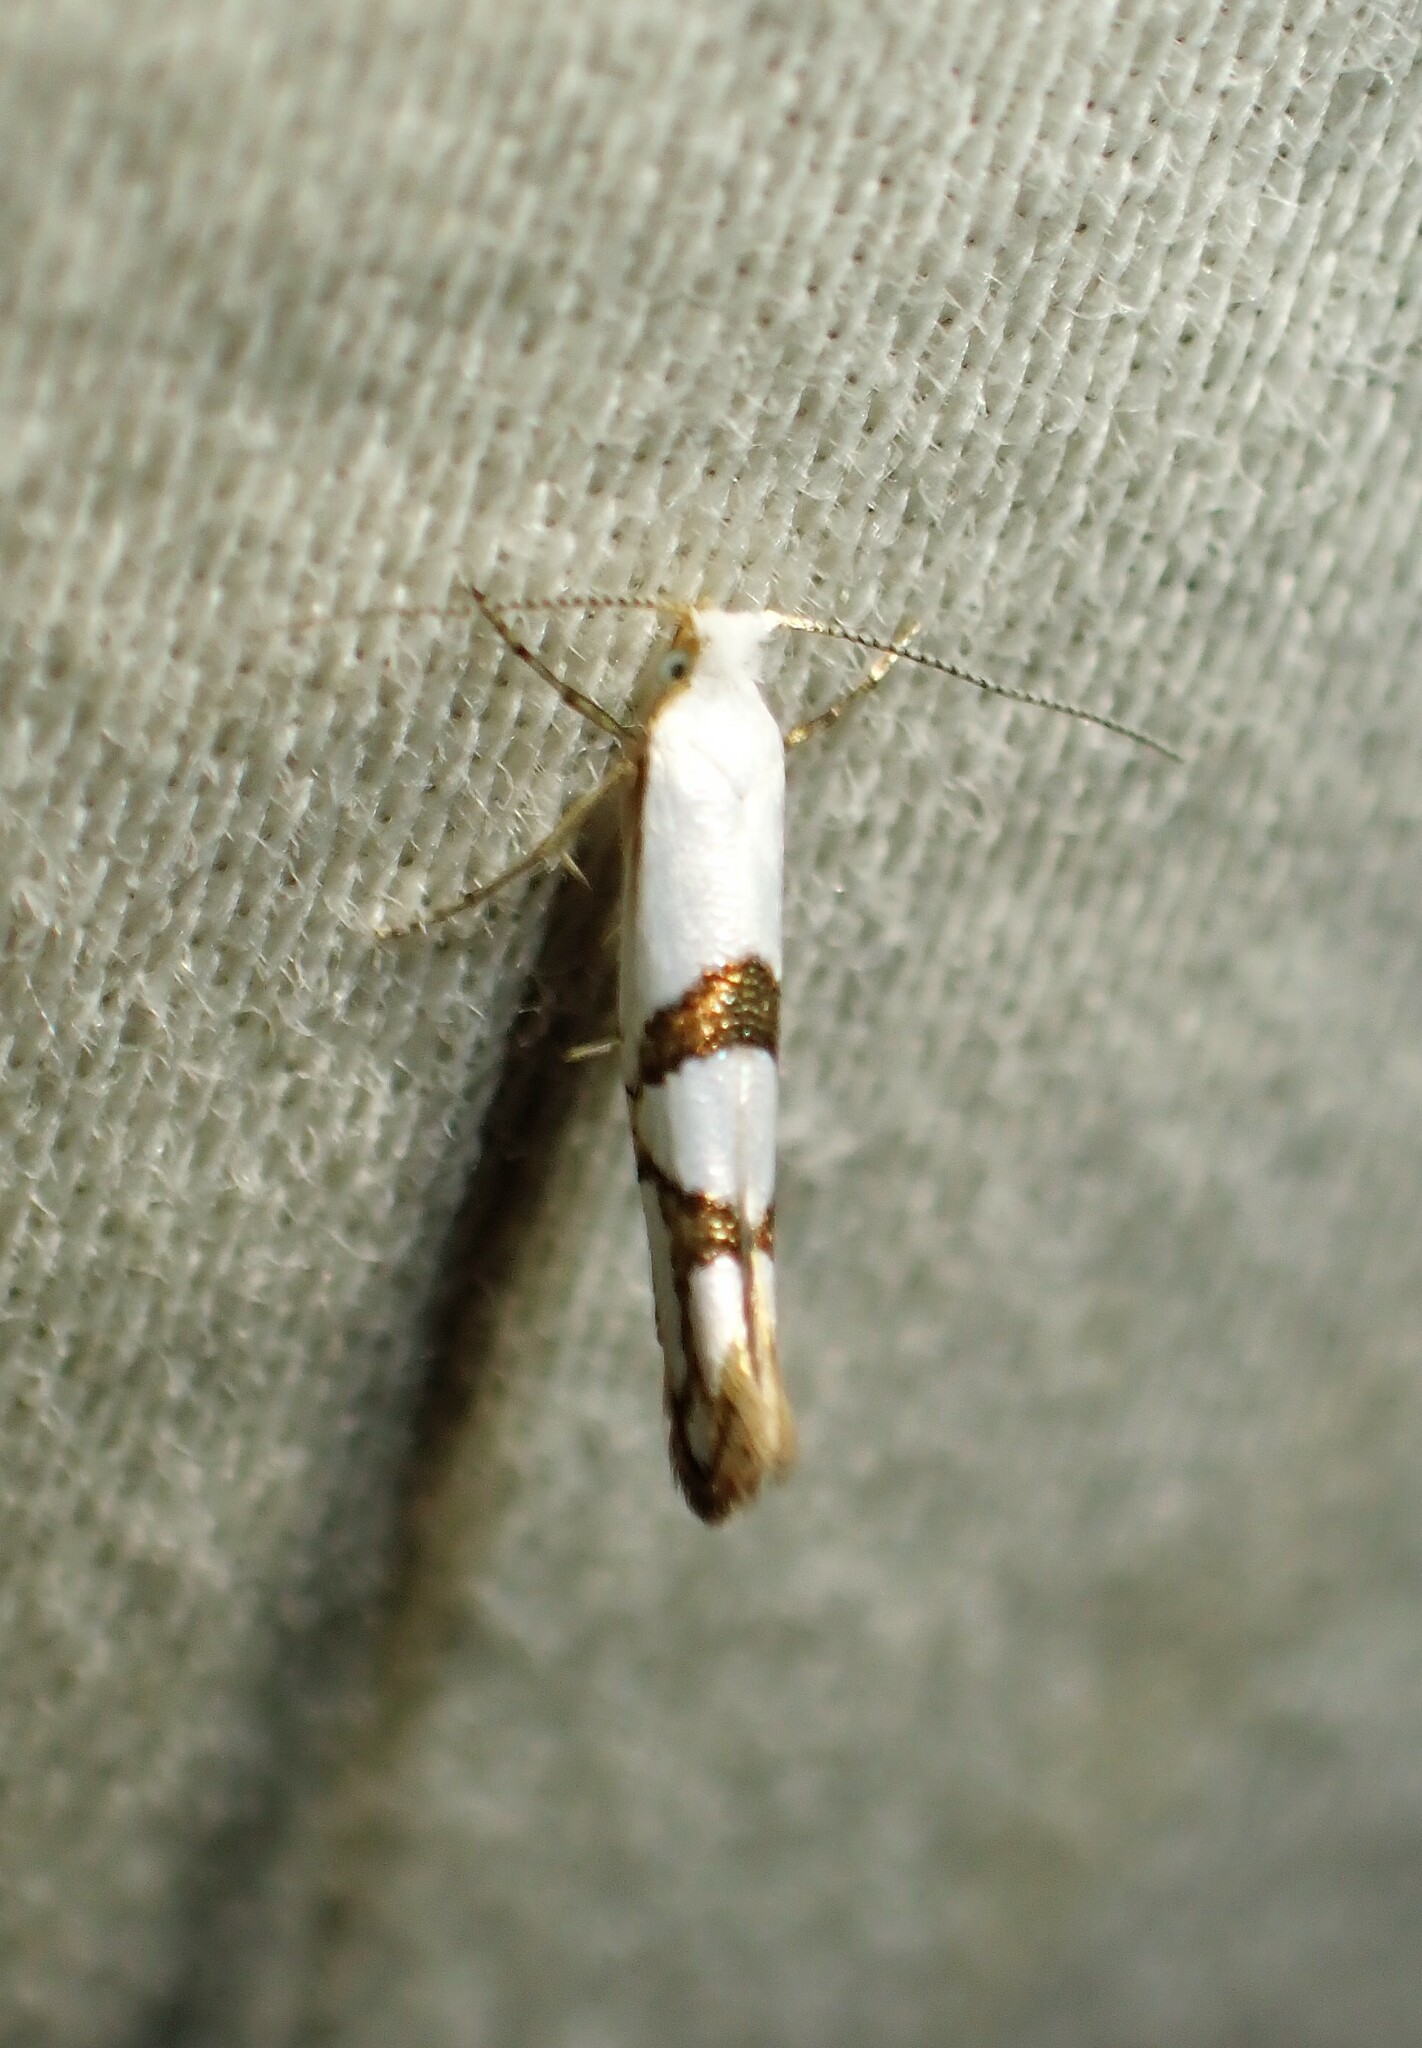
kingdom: Animalia
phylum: Arthropoda
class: Insecta
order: Lepidoptera
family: Argyresthiidae
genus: Argyresthia
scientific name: Argyresthia oreasella
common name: Cherry shoot borer moth
